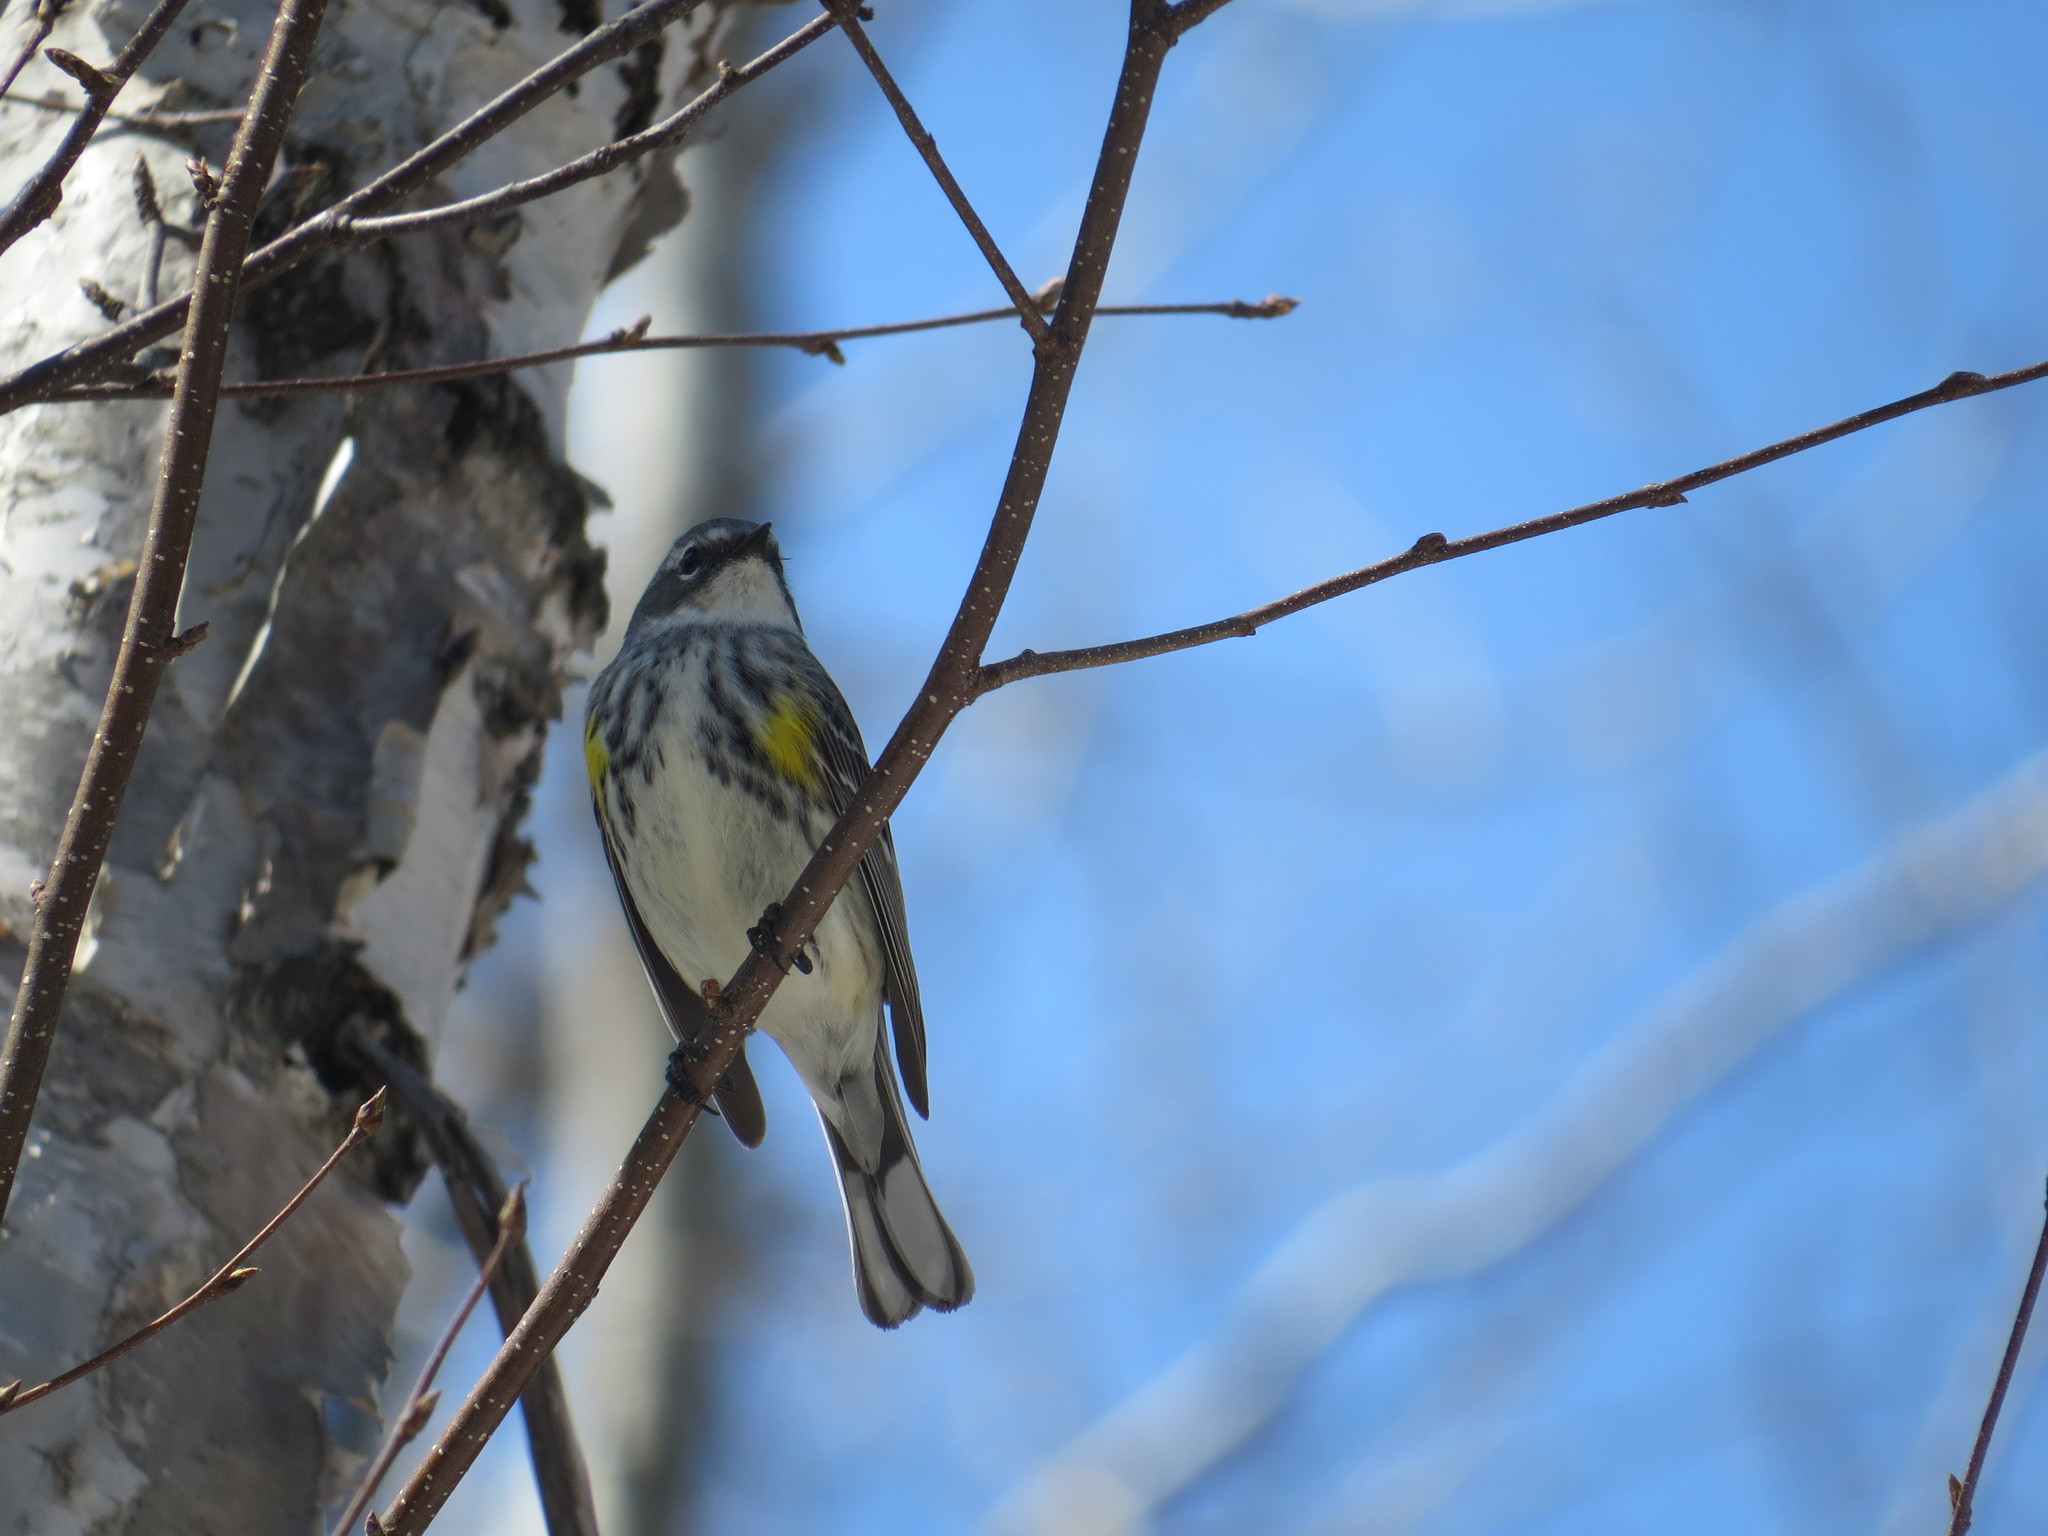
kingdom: Animalia
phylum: Chordata
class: Aves
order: Passeriformes
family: Parulidae
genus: Setophaga
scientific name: Setophaga coronata
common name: Myrtle warbler
